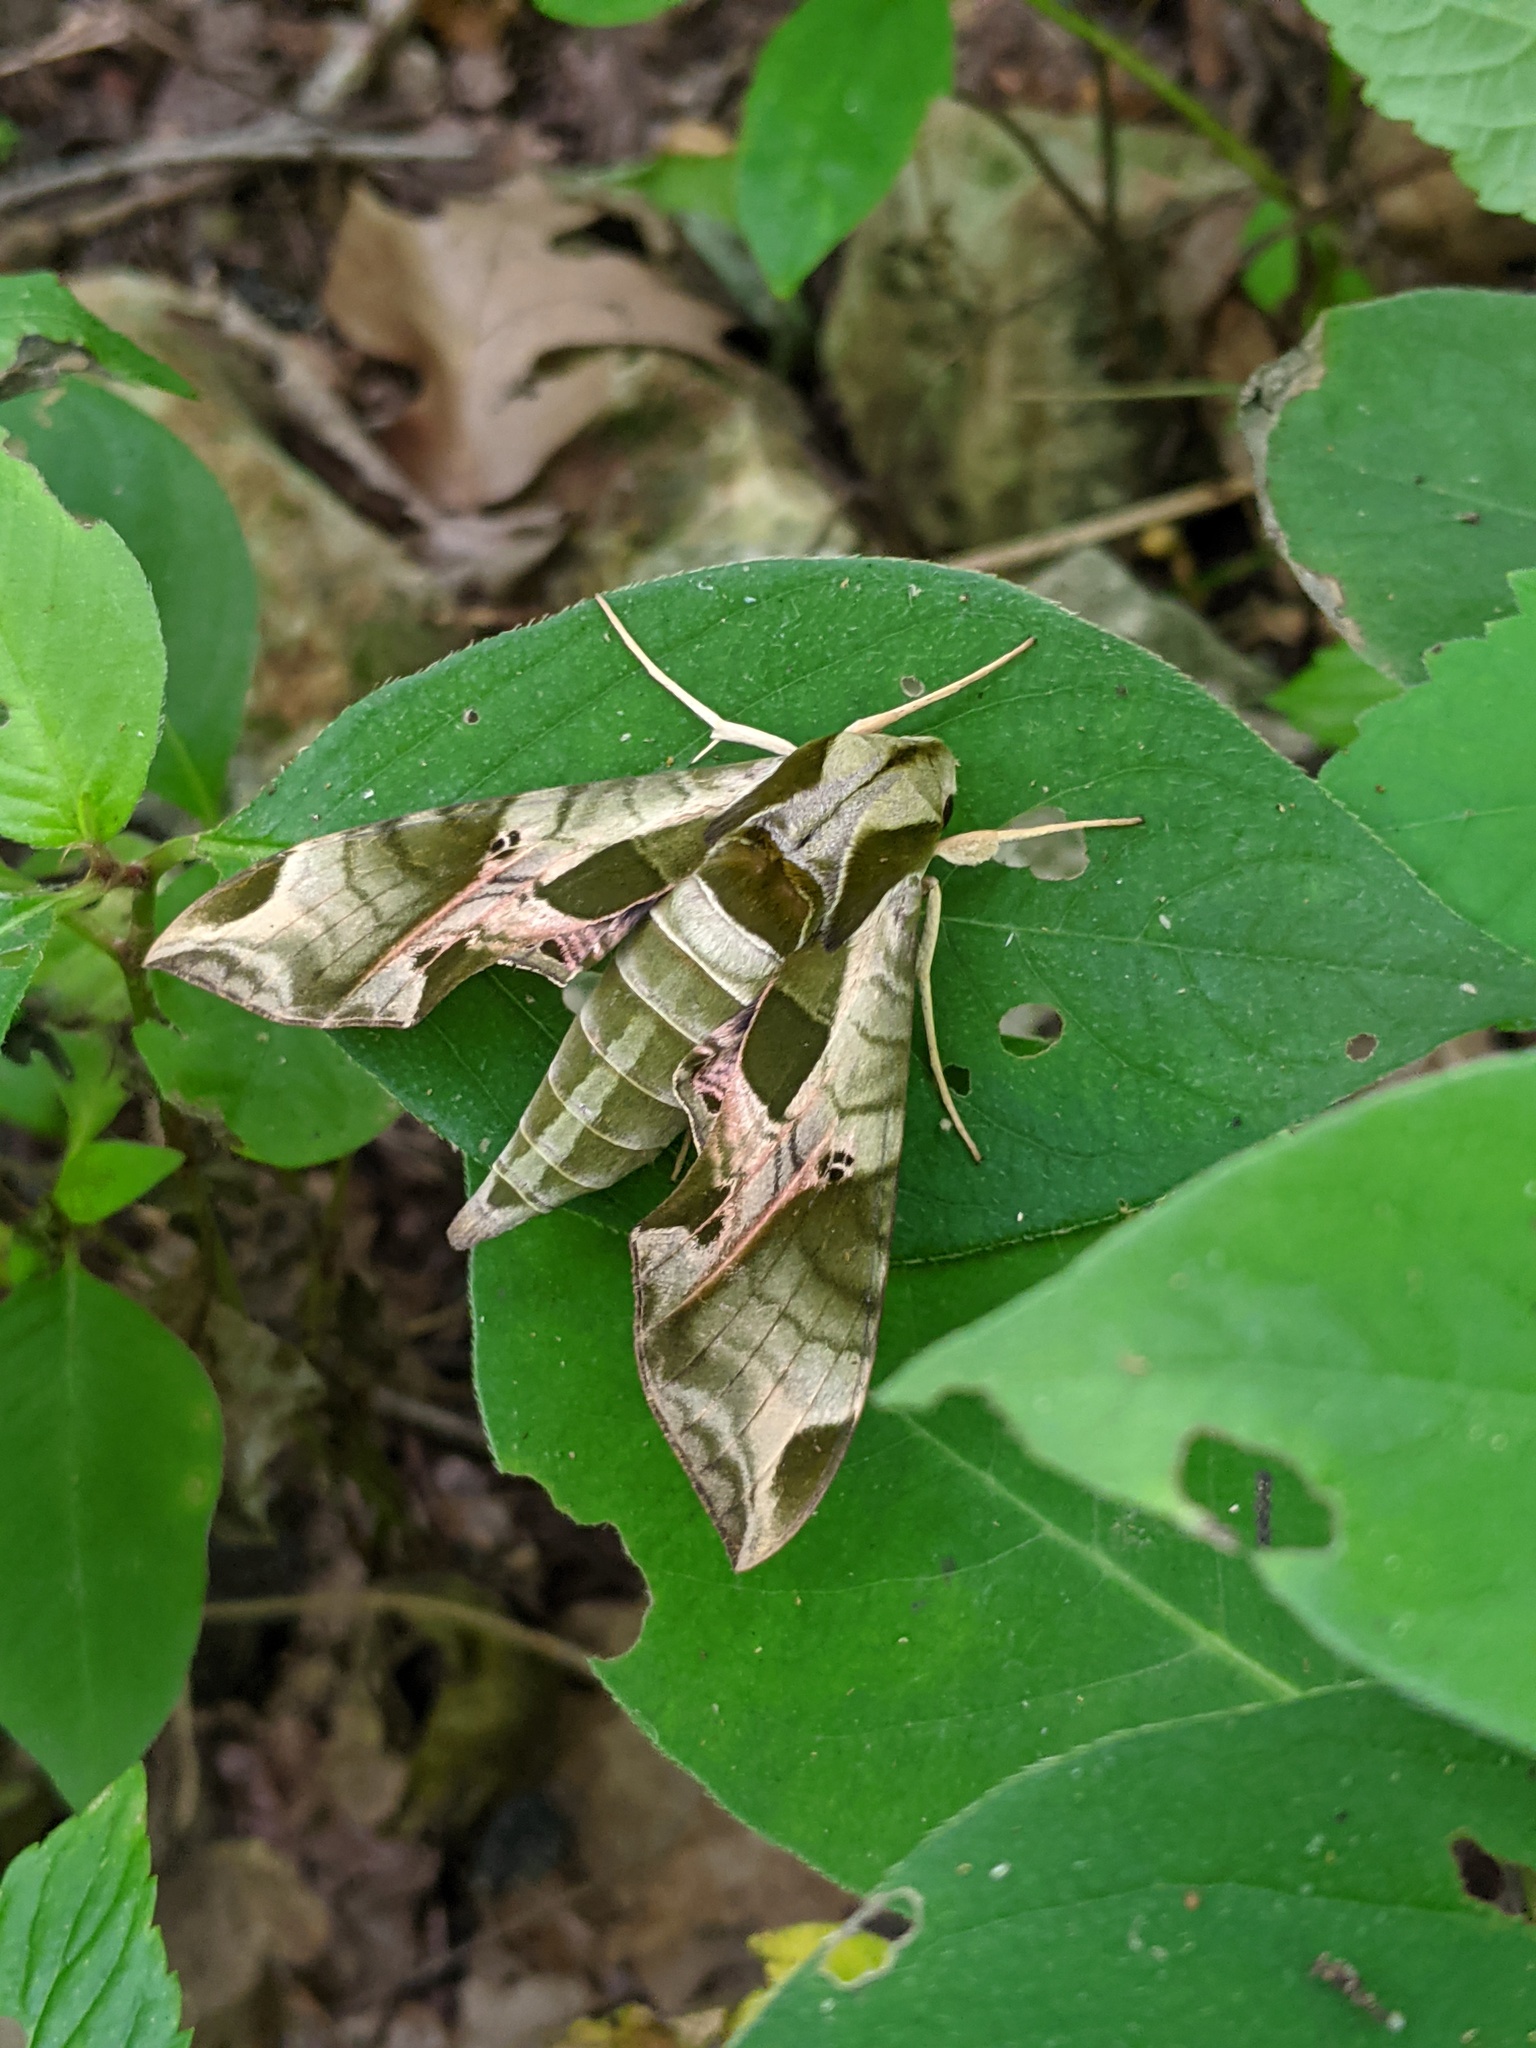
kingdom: Animalia
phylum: Arthropoda
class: Insecta
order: Lepidoptera
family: Sphingidae
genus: Eumorpha
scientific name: Eumorpha pandorus
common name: Pandora sphinx
